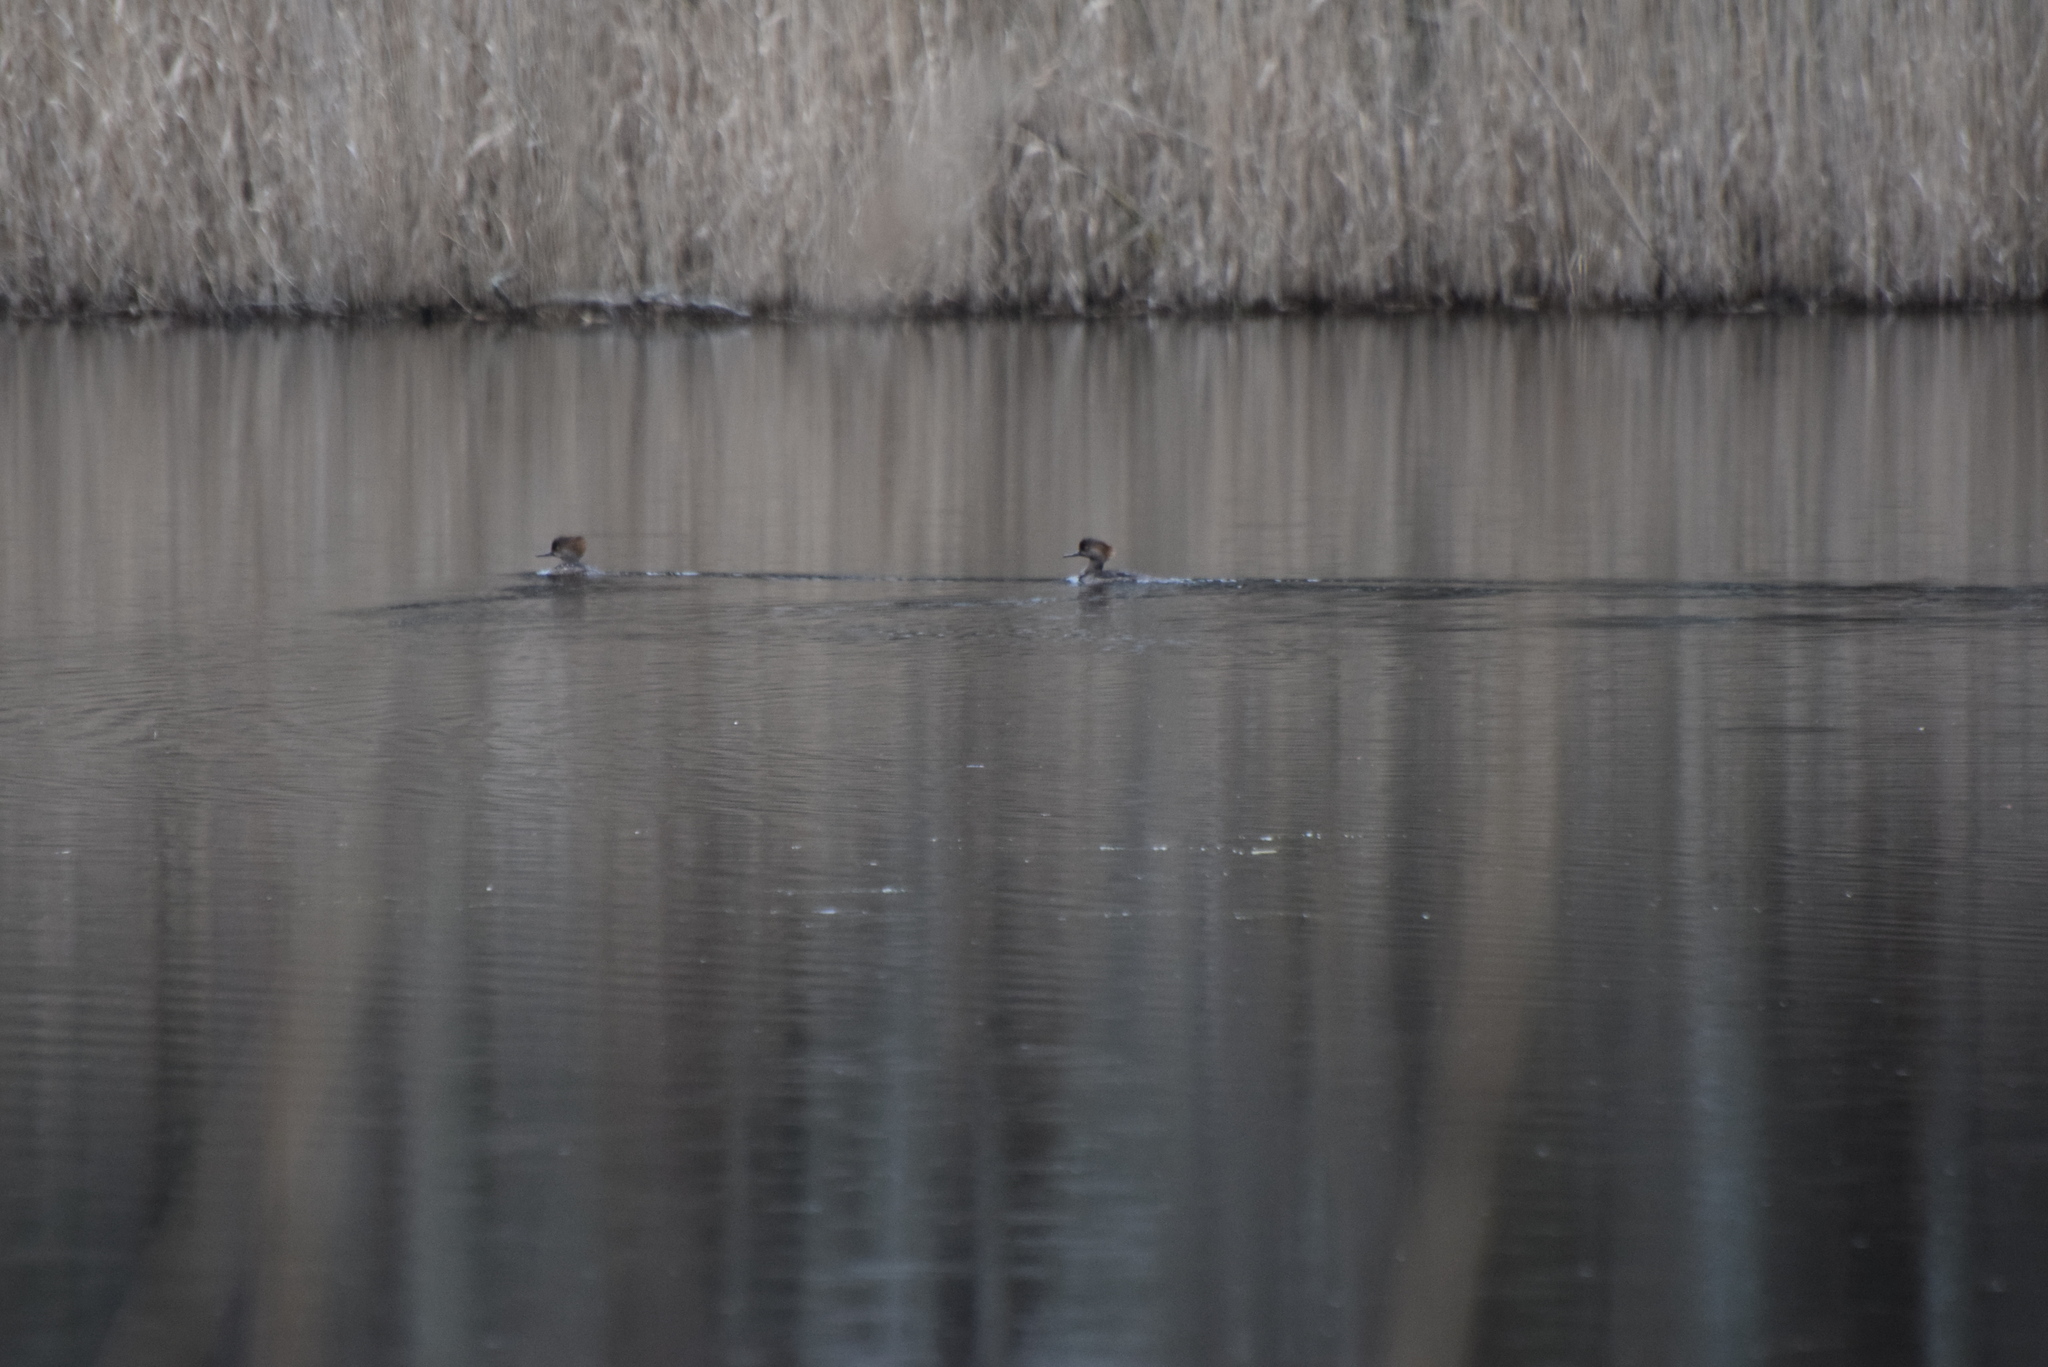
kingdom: Animalia
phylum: Chordata
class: Aves
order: Anseriformes
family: Anatidae
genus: Lophodytes
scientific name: Lophodytes cucullatus
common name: Hooded merganser
